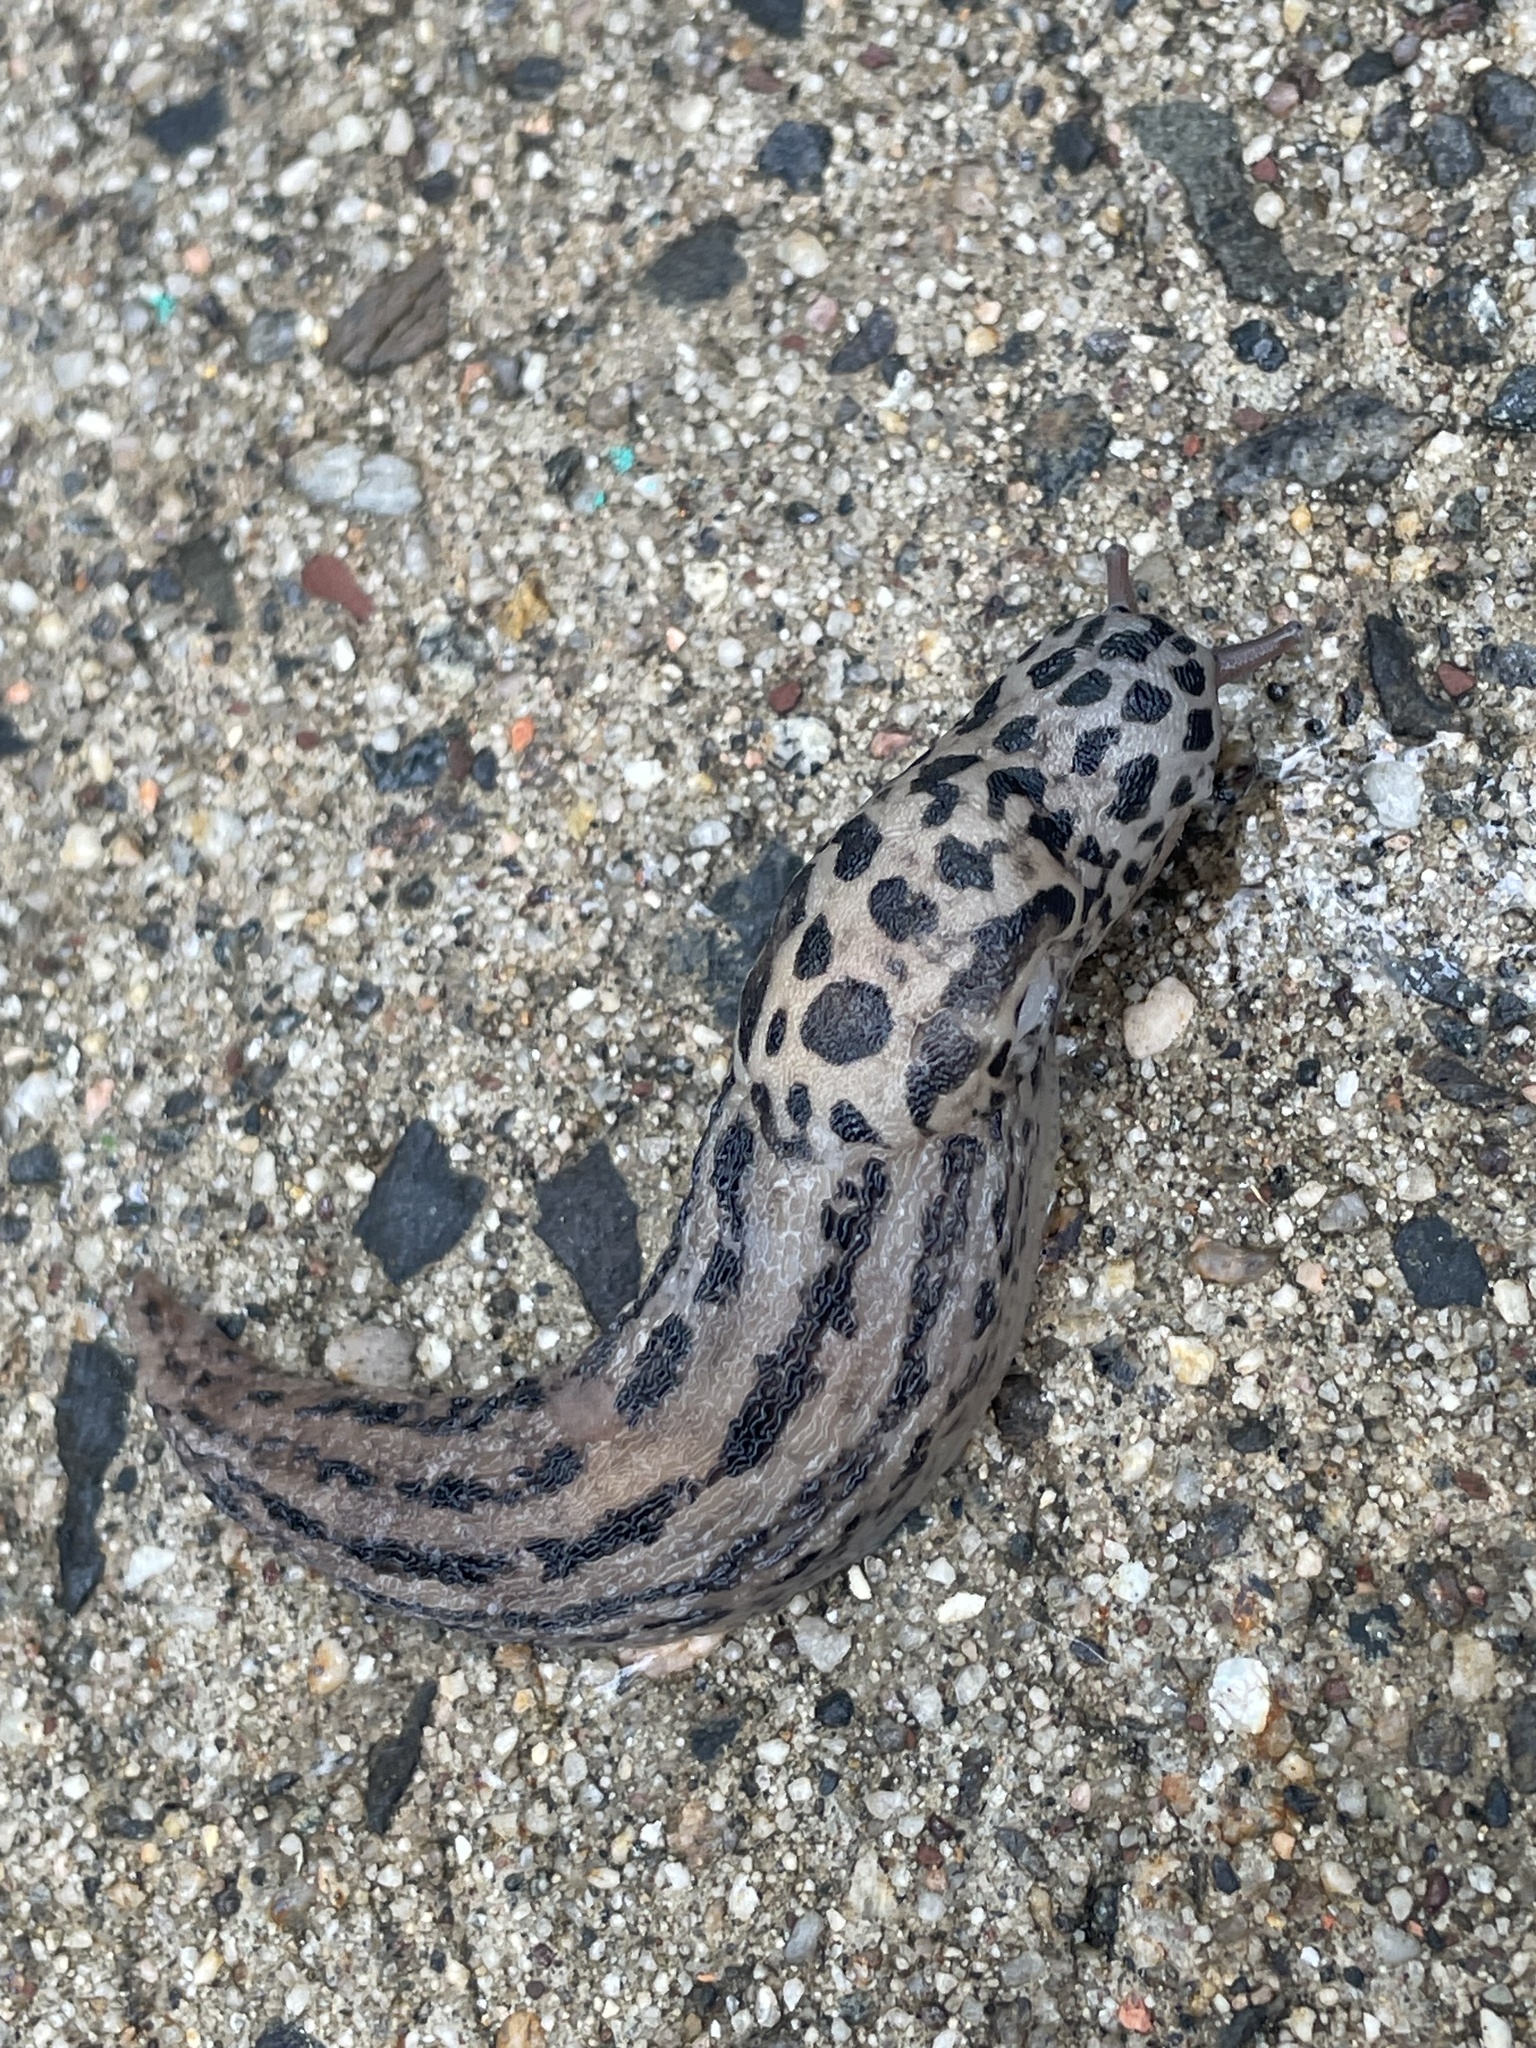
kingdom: Animalia
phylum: Mollusca
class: Gastropoda
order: Stylommatophora
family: Limacidae
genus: Limax
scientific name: Limax maximus
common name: Great grey slug
